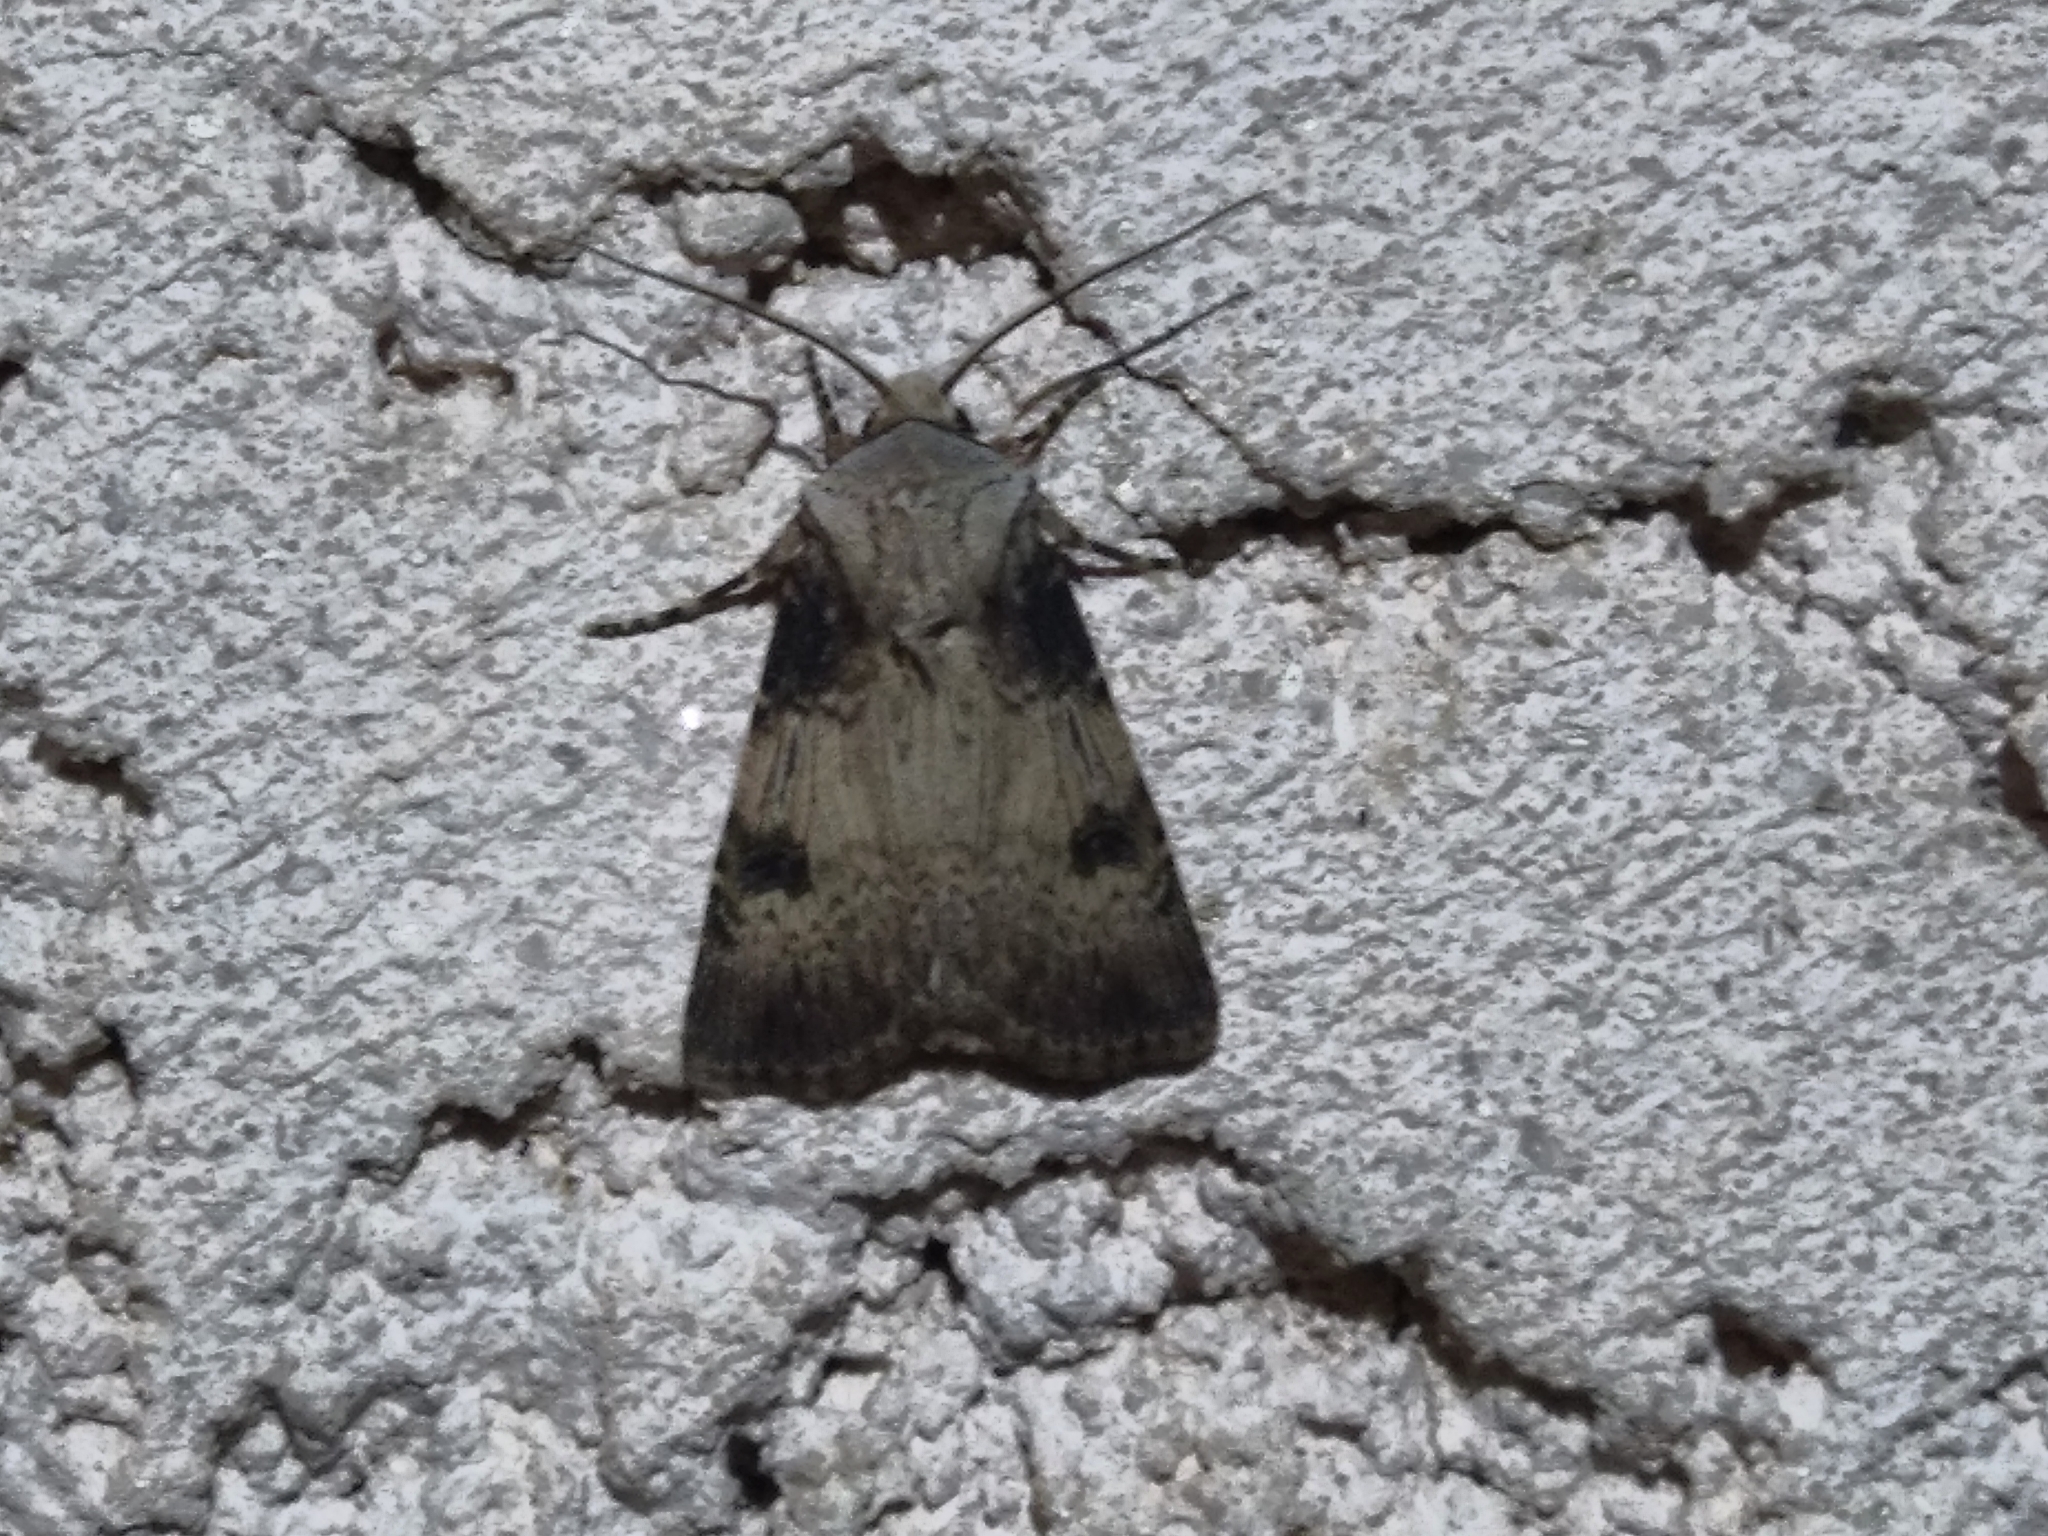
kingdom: Animalia
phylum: Arthropoda
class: Insecta
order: Lepidoptera
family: Noctuidae
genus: Agrotis
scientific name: Agrotis puta
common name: Shuttle-shaped dart
